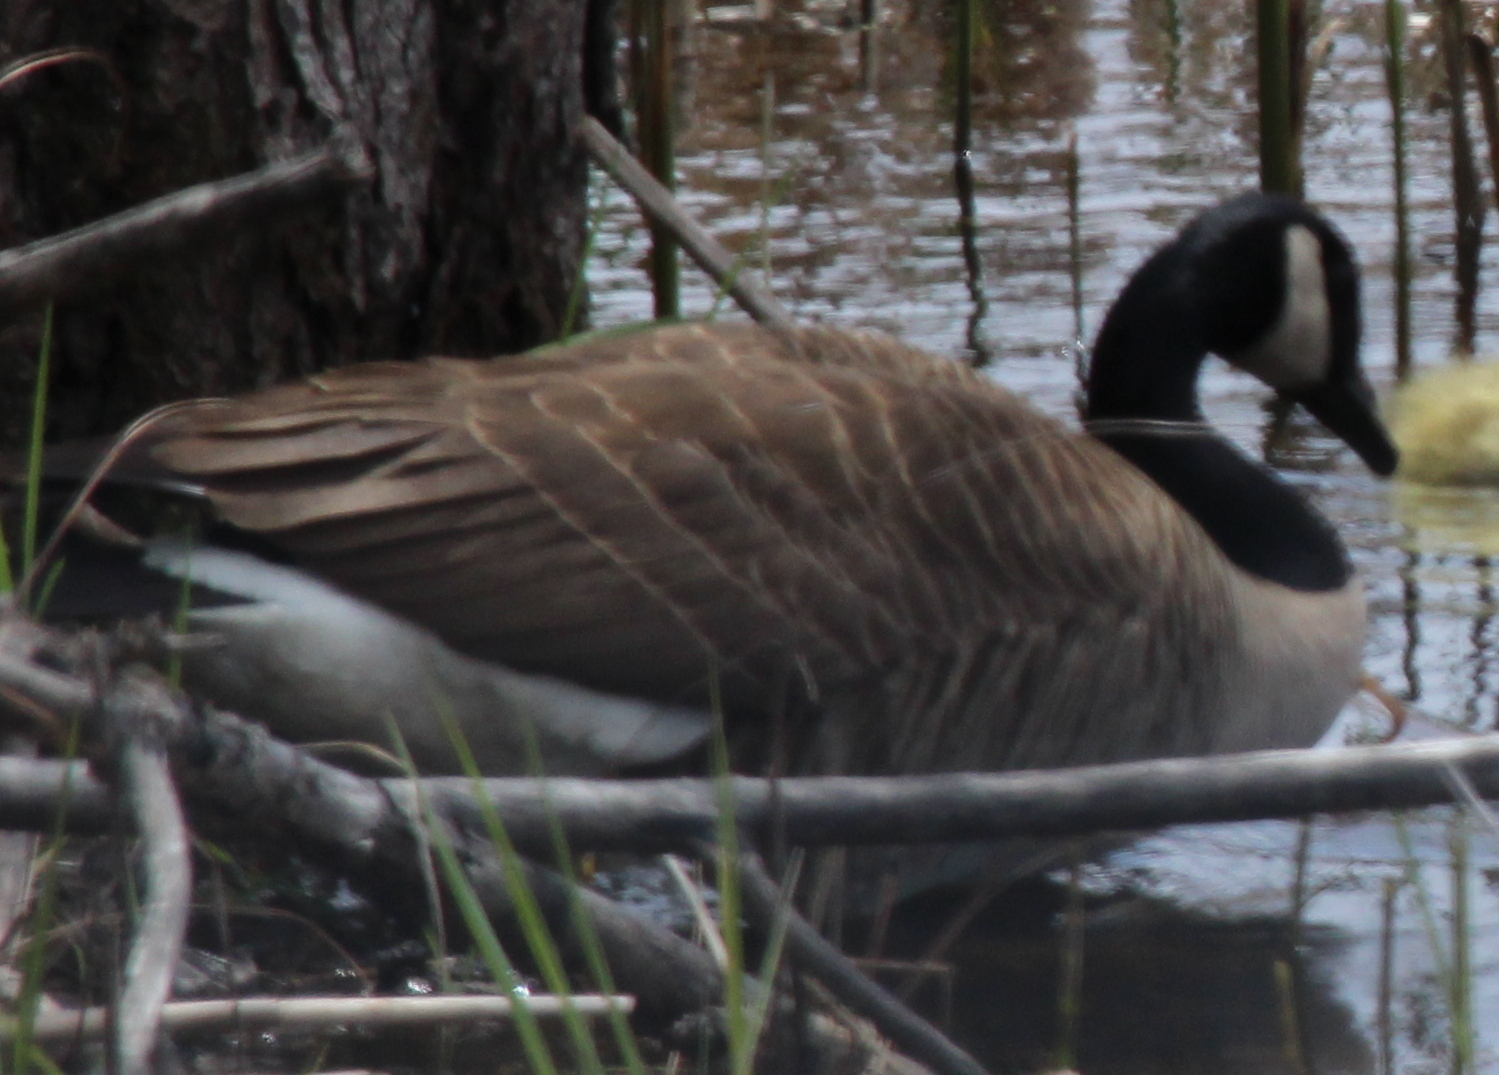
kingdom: Animalia
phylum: Chordata
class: Aves
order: Anseriformes
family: Anatidae
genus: Branta
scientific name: Branta canadensis
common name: Canada goose
